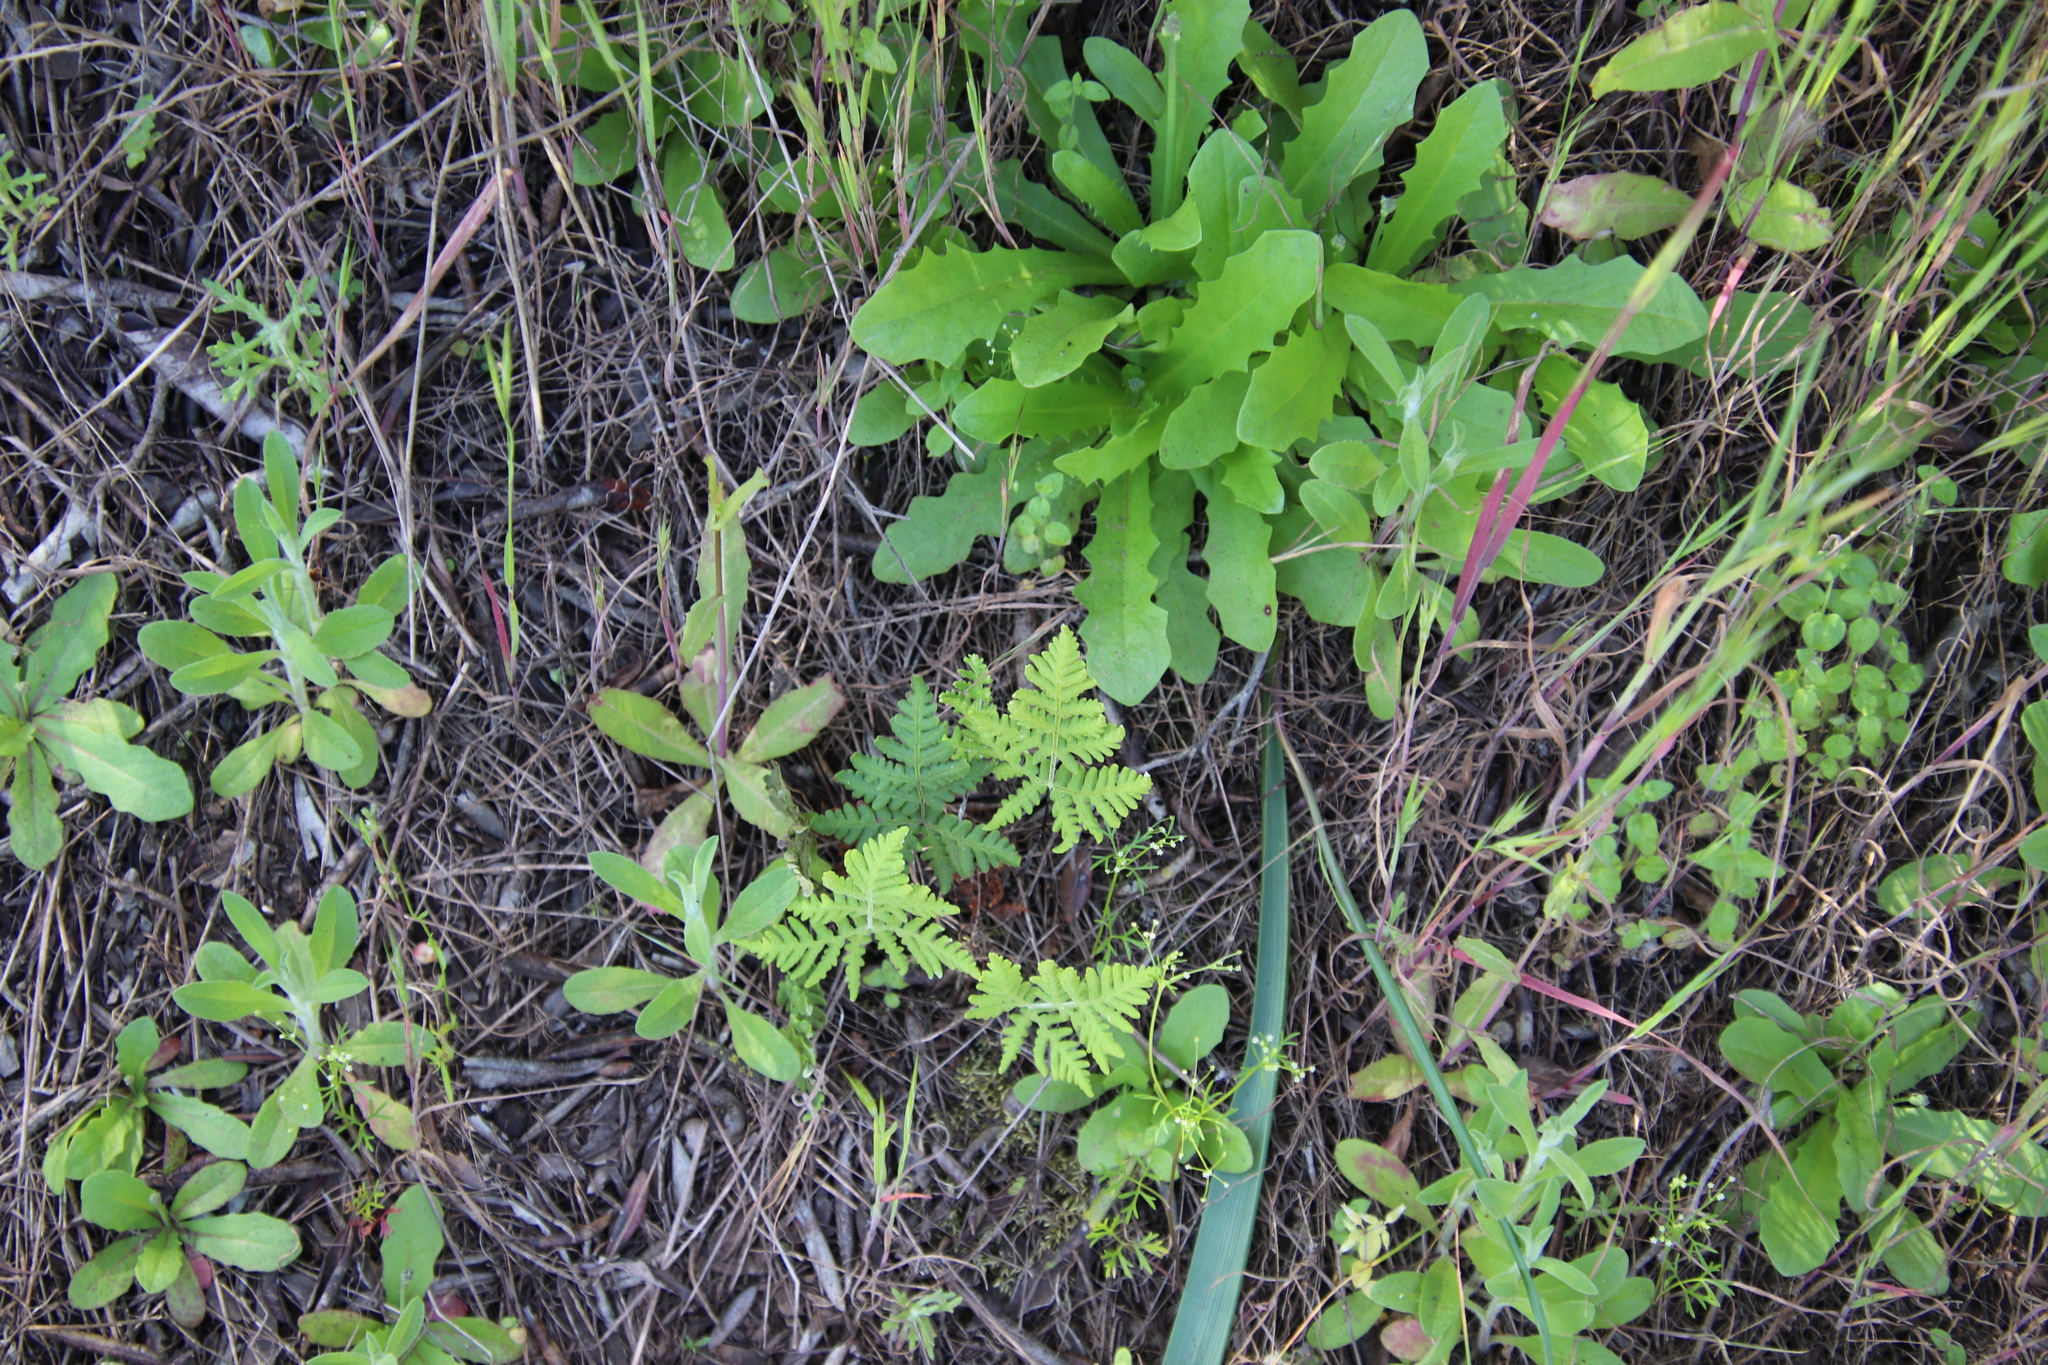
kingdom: Plantae
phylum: Tracheophyta
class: Polypodiopsida
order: Polypodiales
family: Pteridaceae
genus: Pentagramma
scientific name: Pentagramma glanduloviscida
